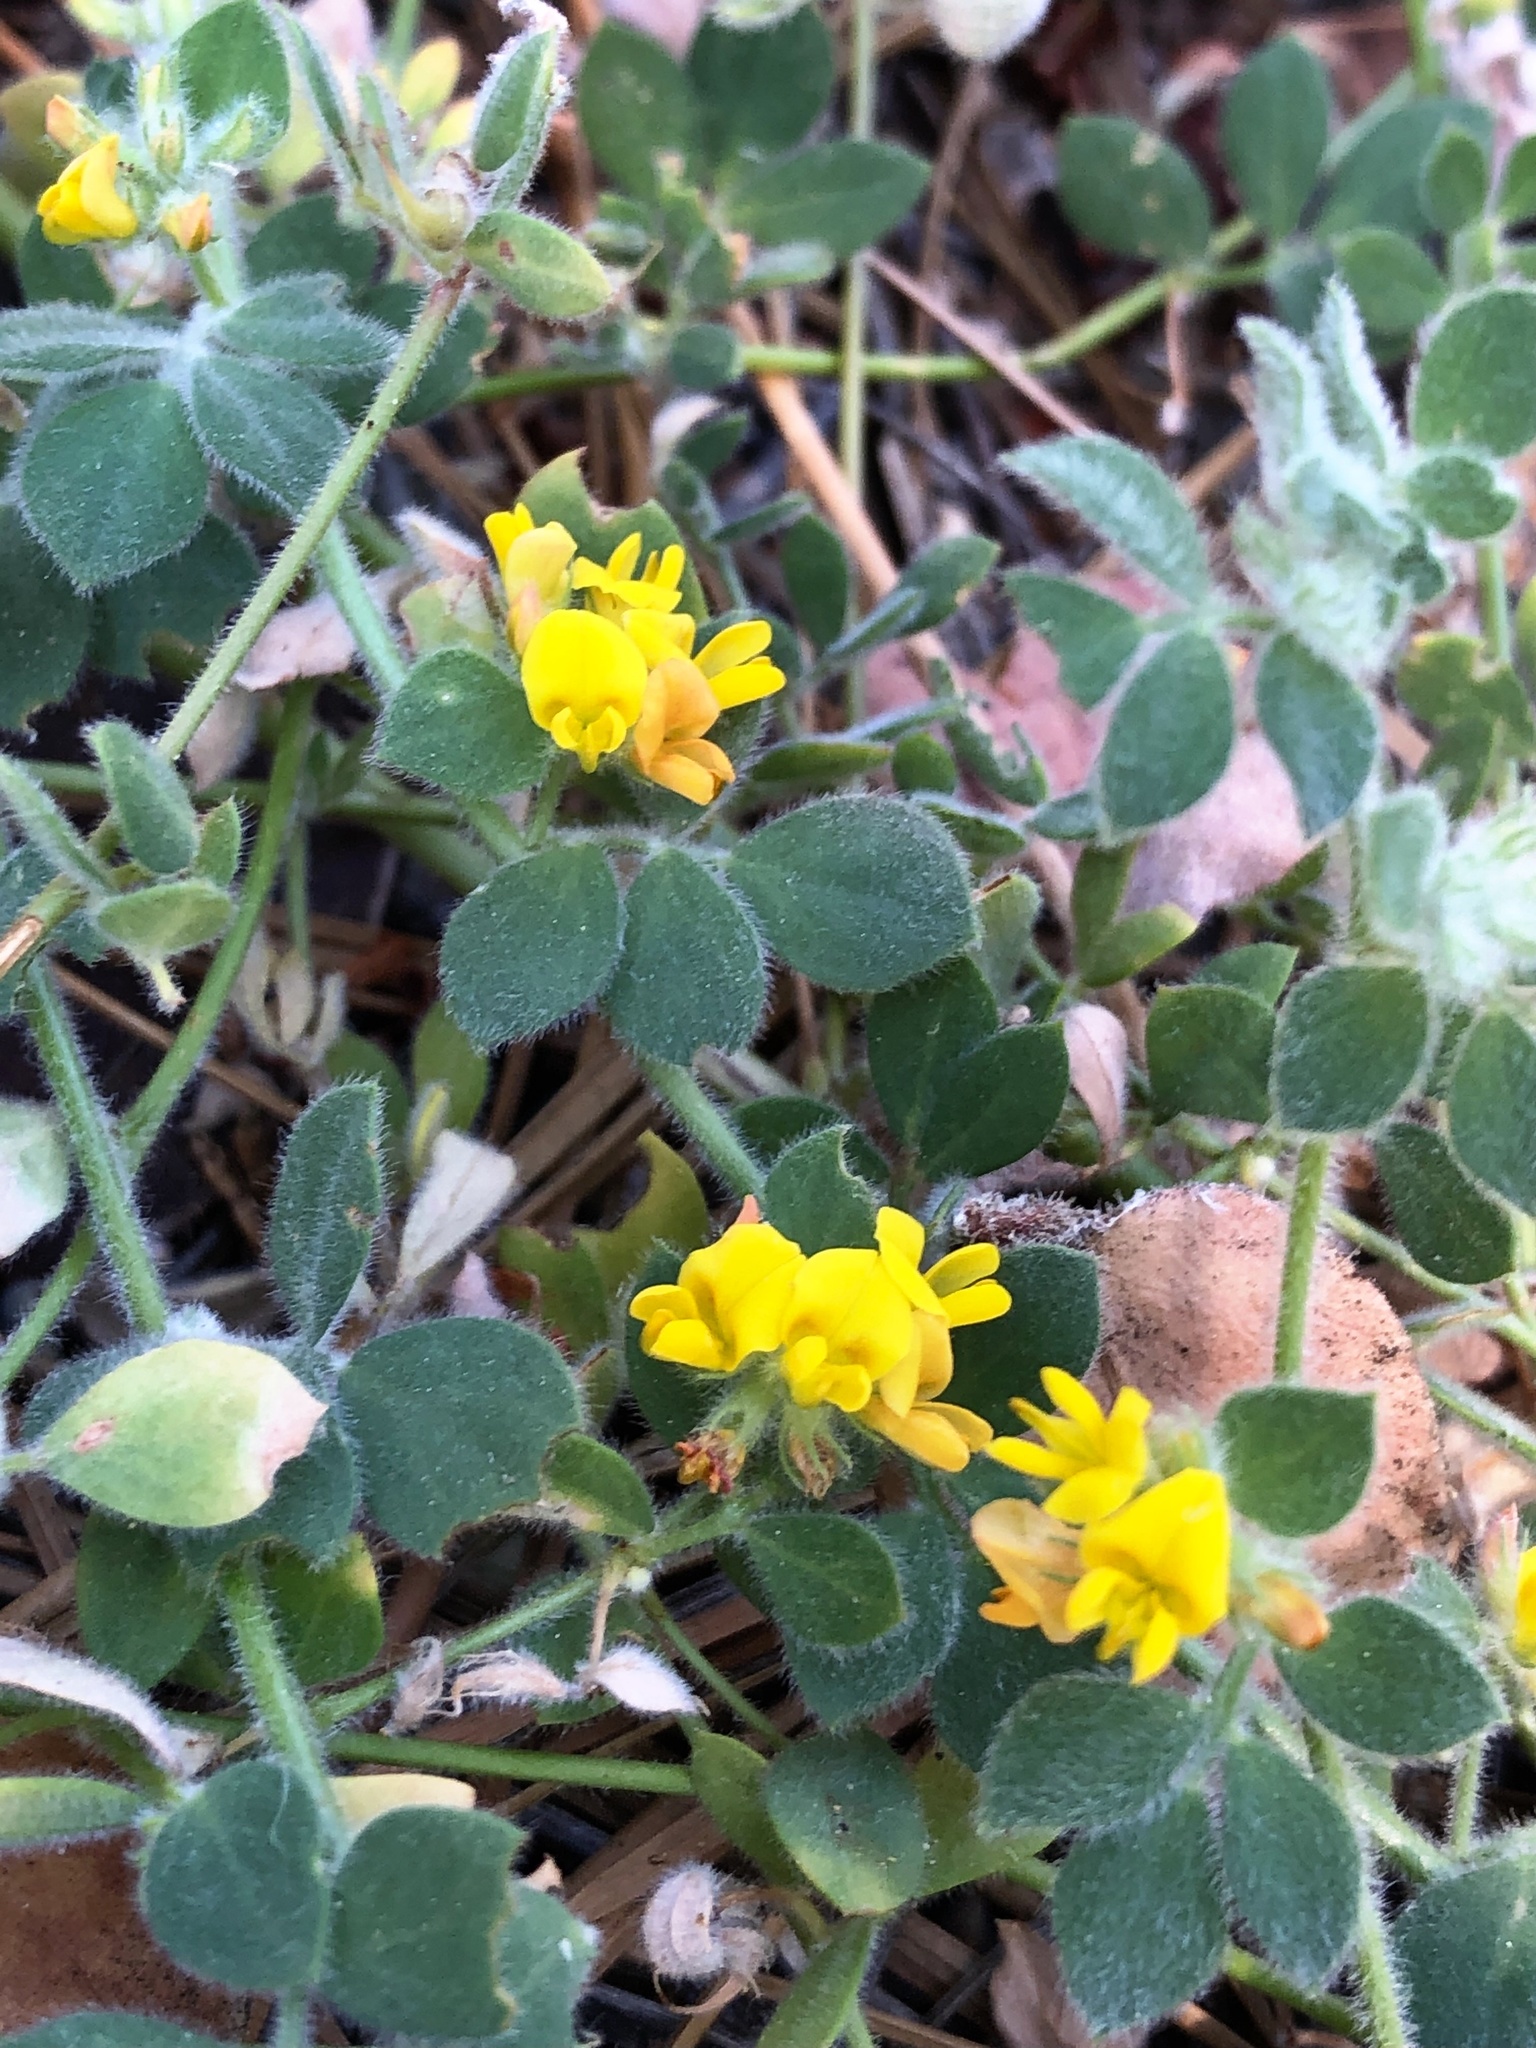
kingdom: Plantae
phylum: Tracheophyta
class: Magnoliopsida
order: Fabales
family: Fabaceae
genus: Acmispon
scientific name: Acmispon tomentosus
